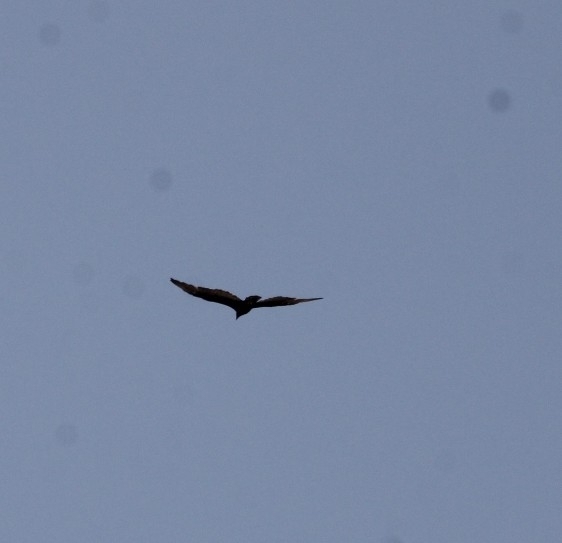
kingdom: Animalia
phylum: Chordata
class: Aves
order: Accipitriformes
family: Cathartidae
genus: Cathartes
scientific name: Cathartes aura
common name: Turkey vulture
